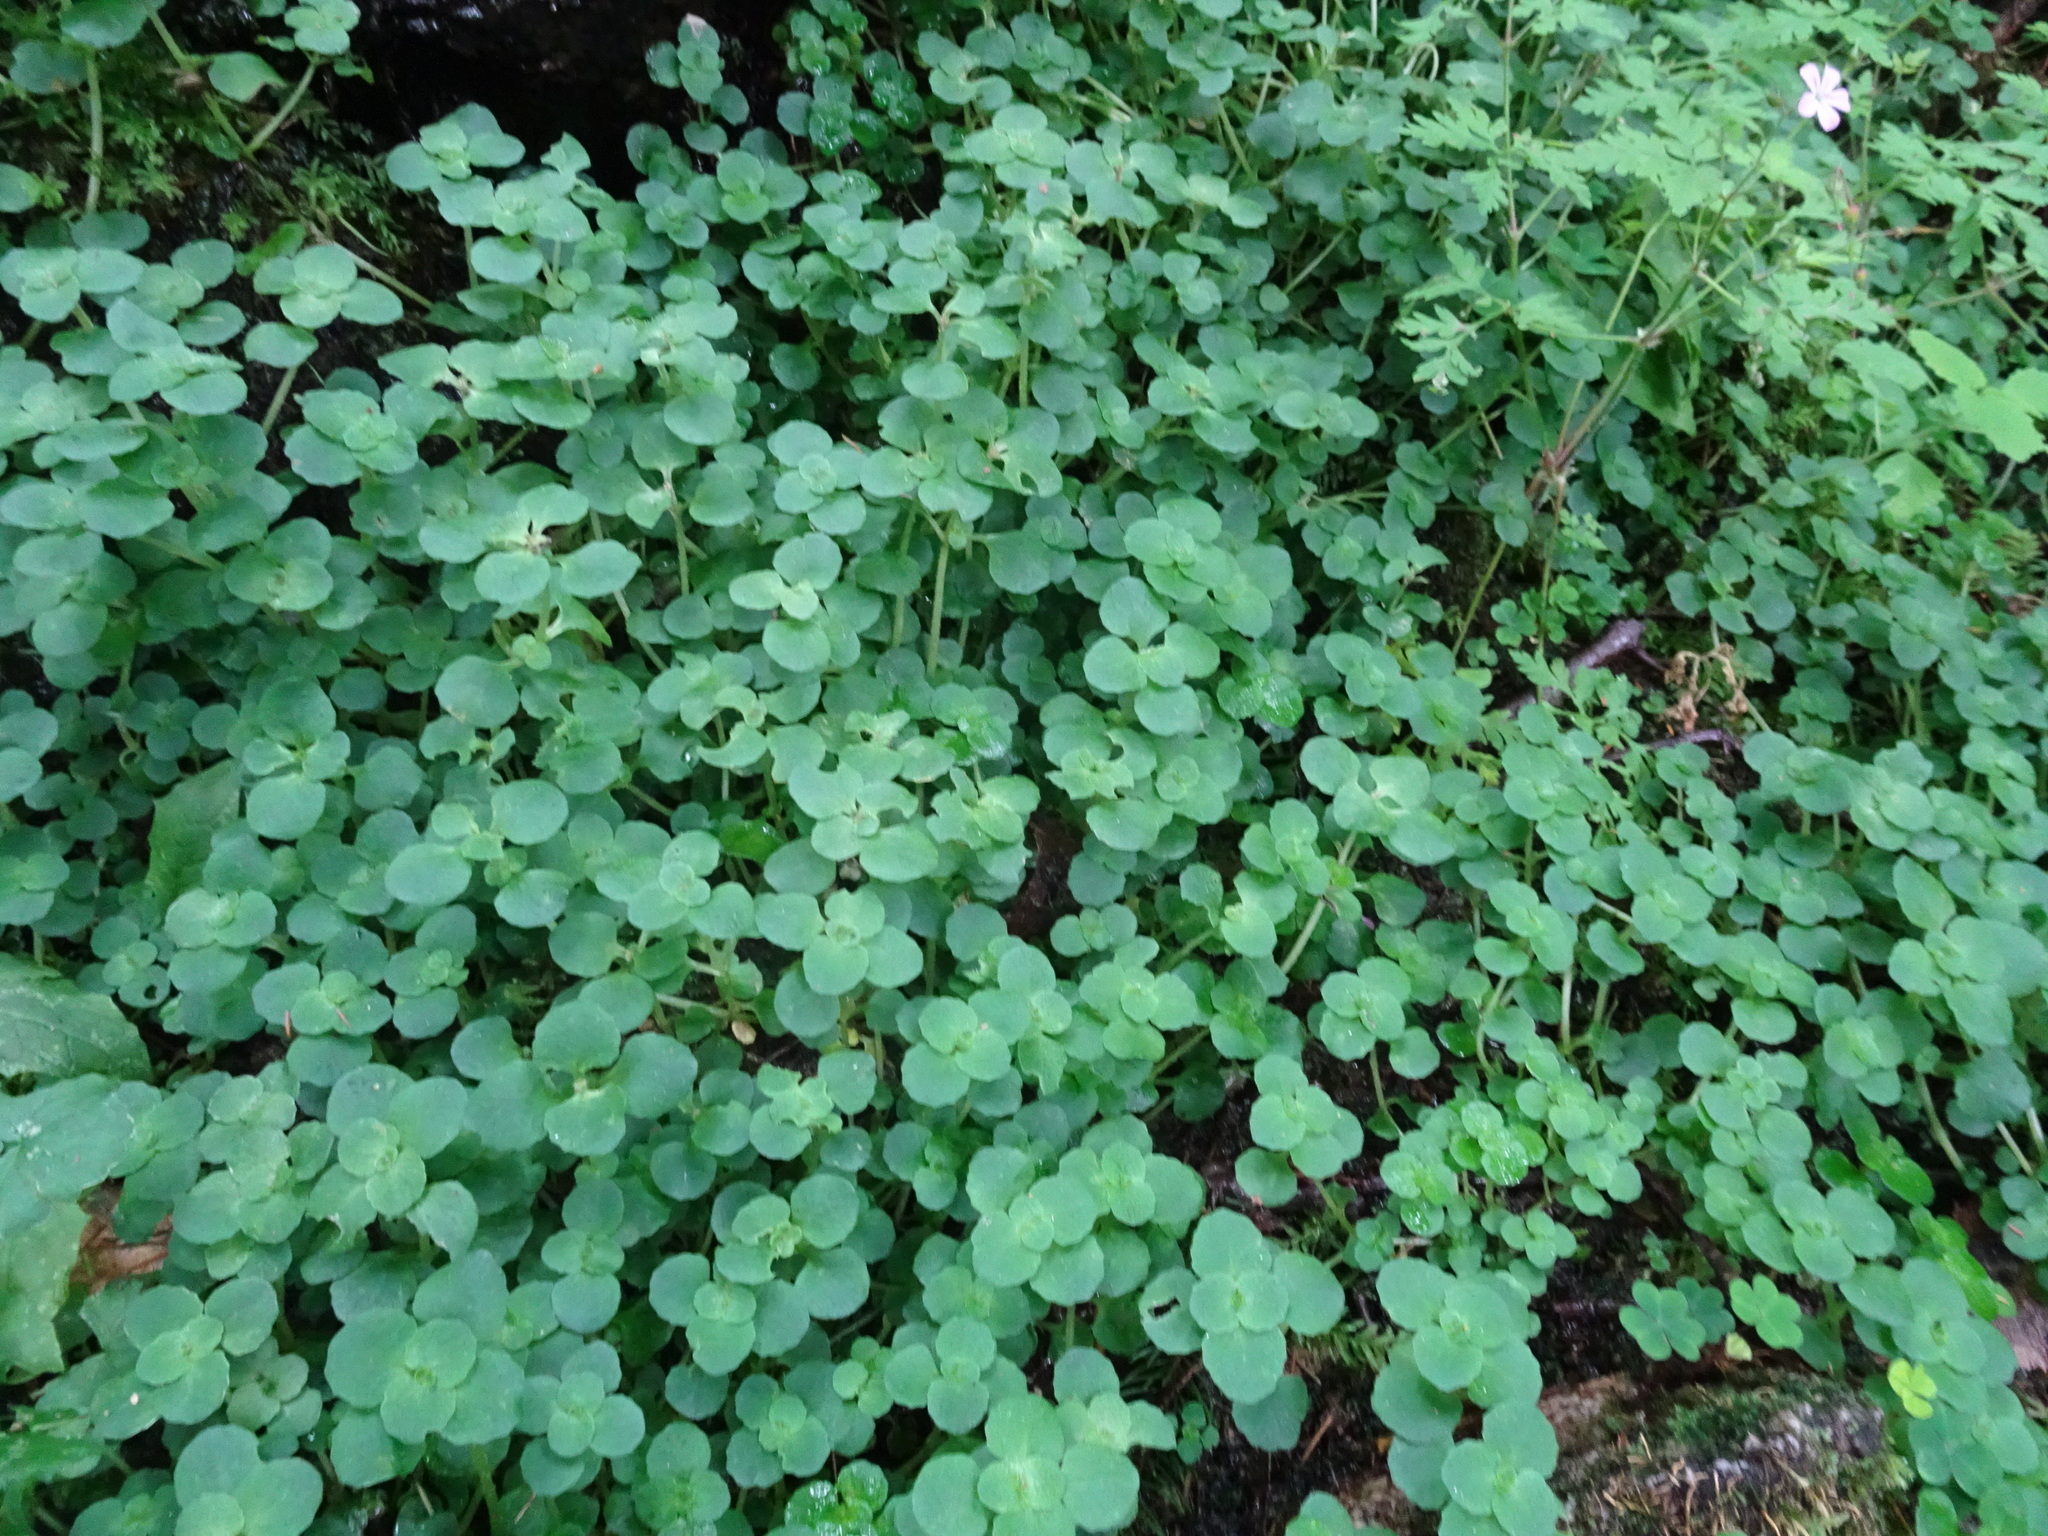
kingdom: Plantae
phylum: Tracheophyta
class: Magnoliopsida
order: Ranunculales
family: Ranunculaceae
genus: Caltha
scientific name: Caltha palustris
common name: Marsh marigold
